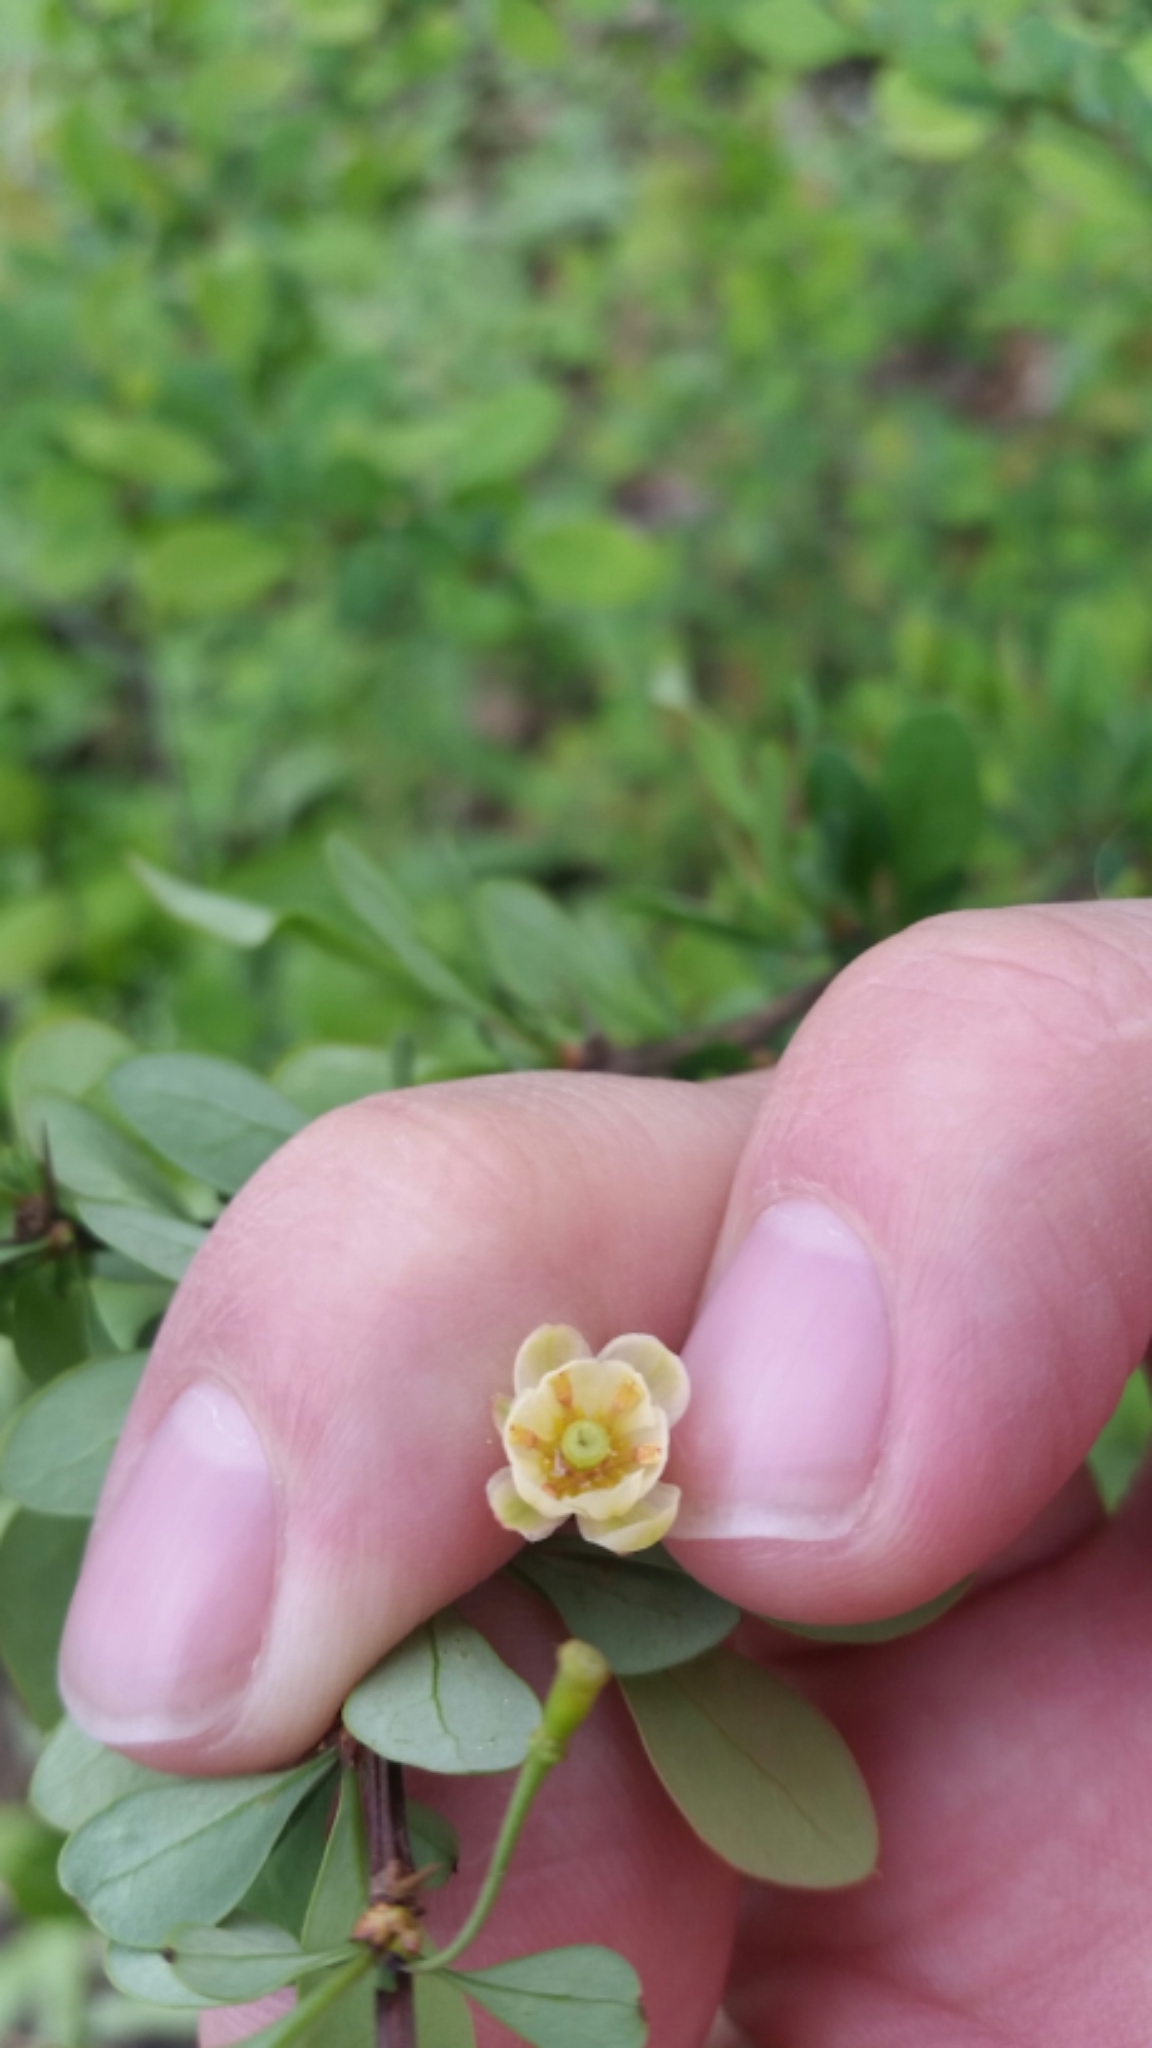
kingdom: Plantae
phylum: Tracheophyta
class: Magnoliopsida
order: Ranunculales
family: Berberidaceae
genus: Berberis
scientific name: Berberis thunbergii
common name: Japanese barberry
